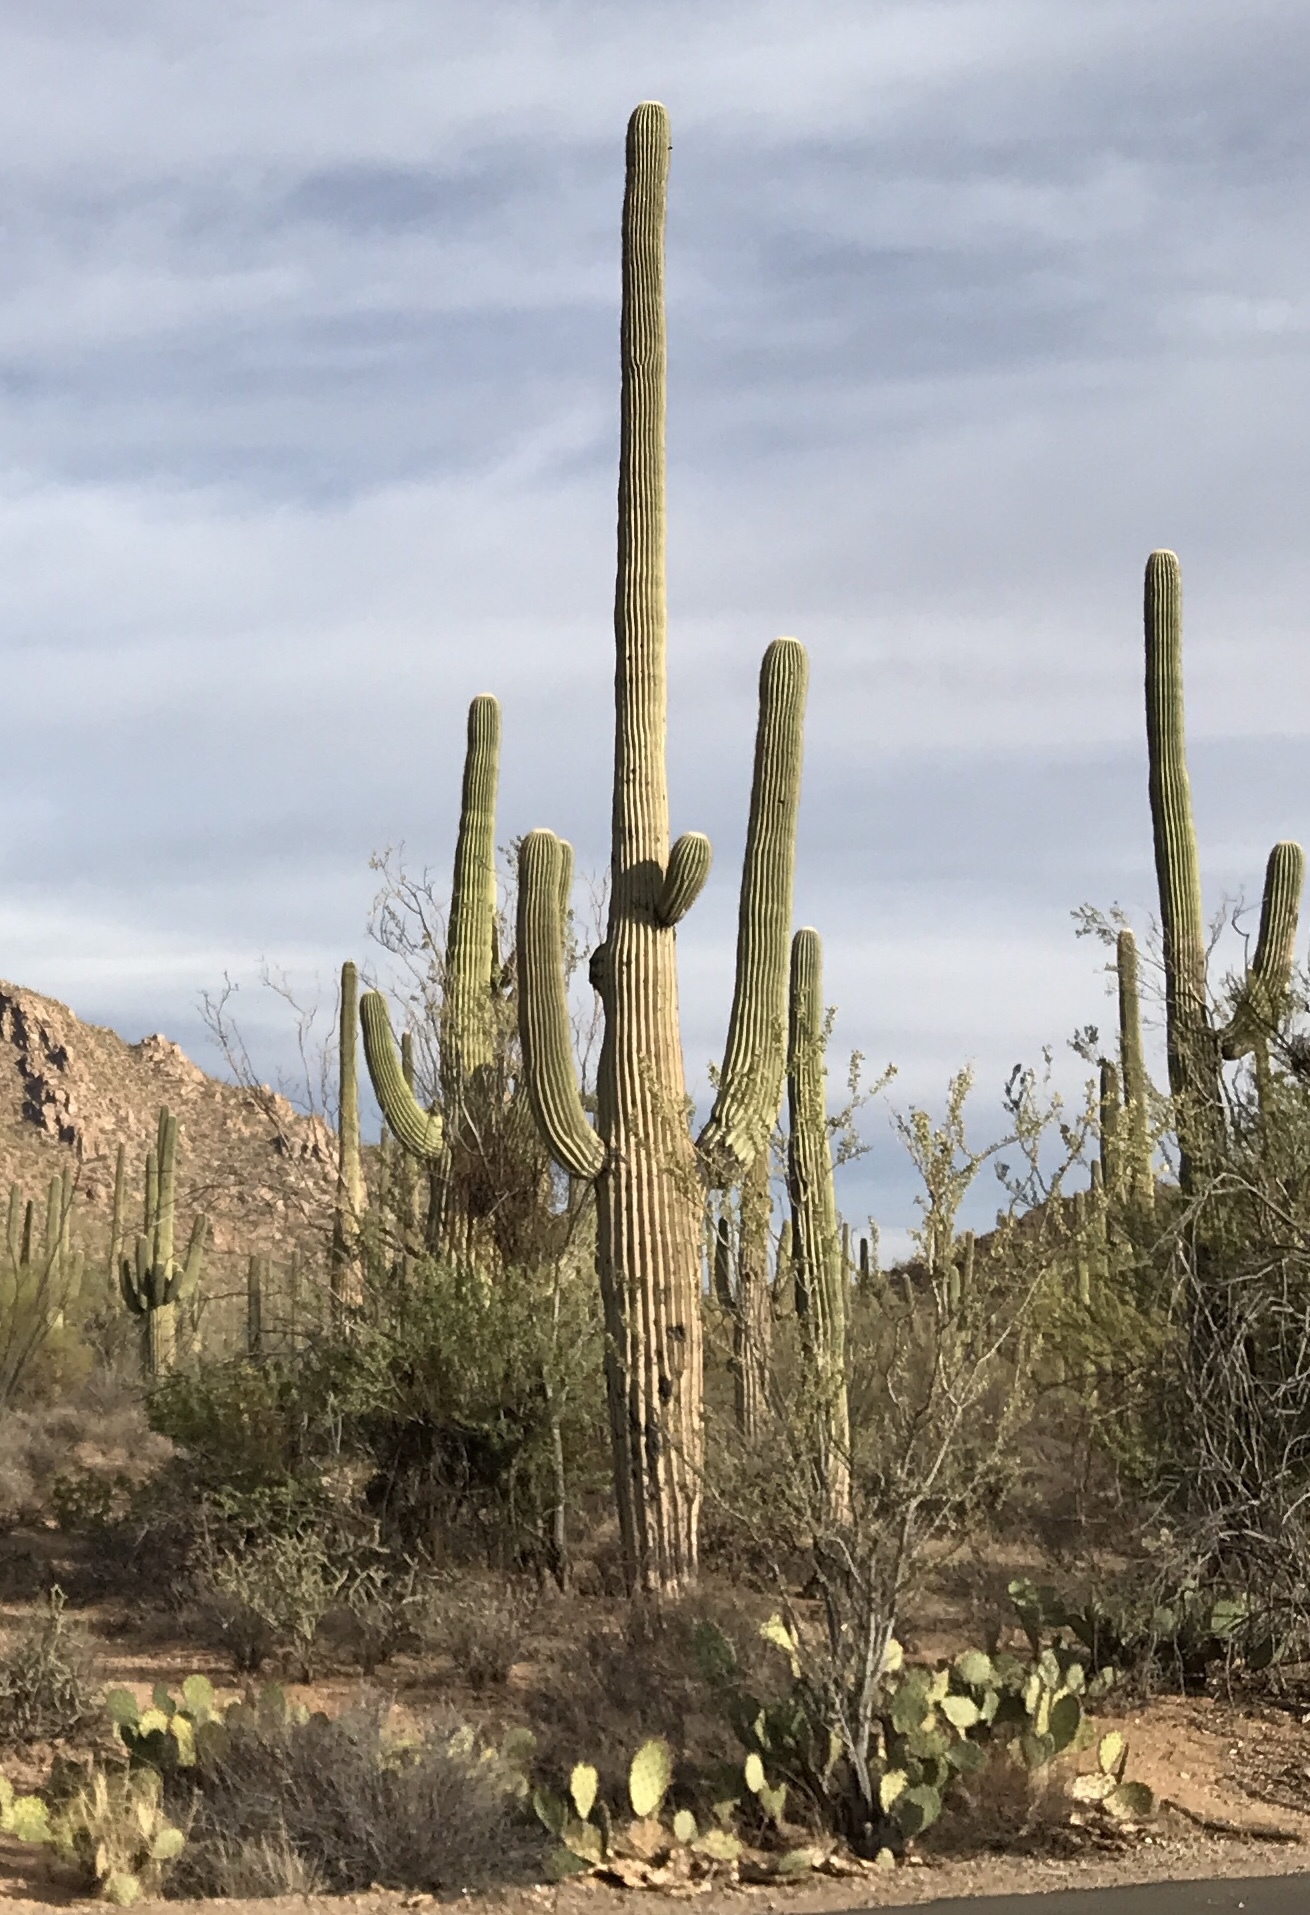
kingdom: Plantae
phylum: Tracheophyta
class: Magnoliopsida
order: Caryophyllales
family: Cactaceae
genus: Carnegiea
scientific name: Carnegiea gigantea
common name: Saguaro
